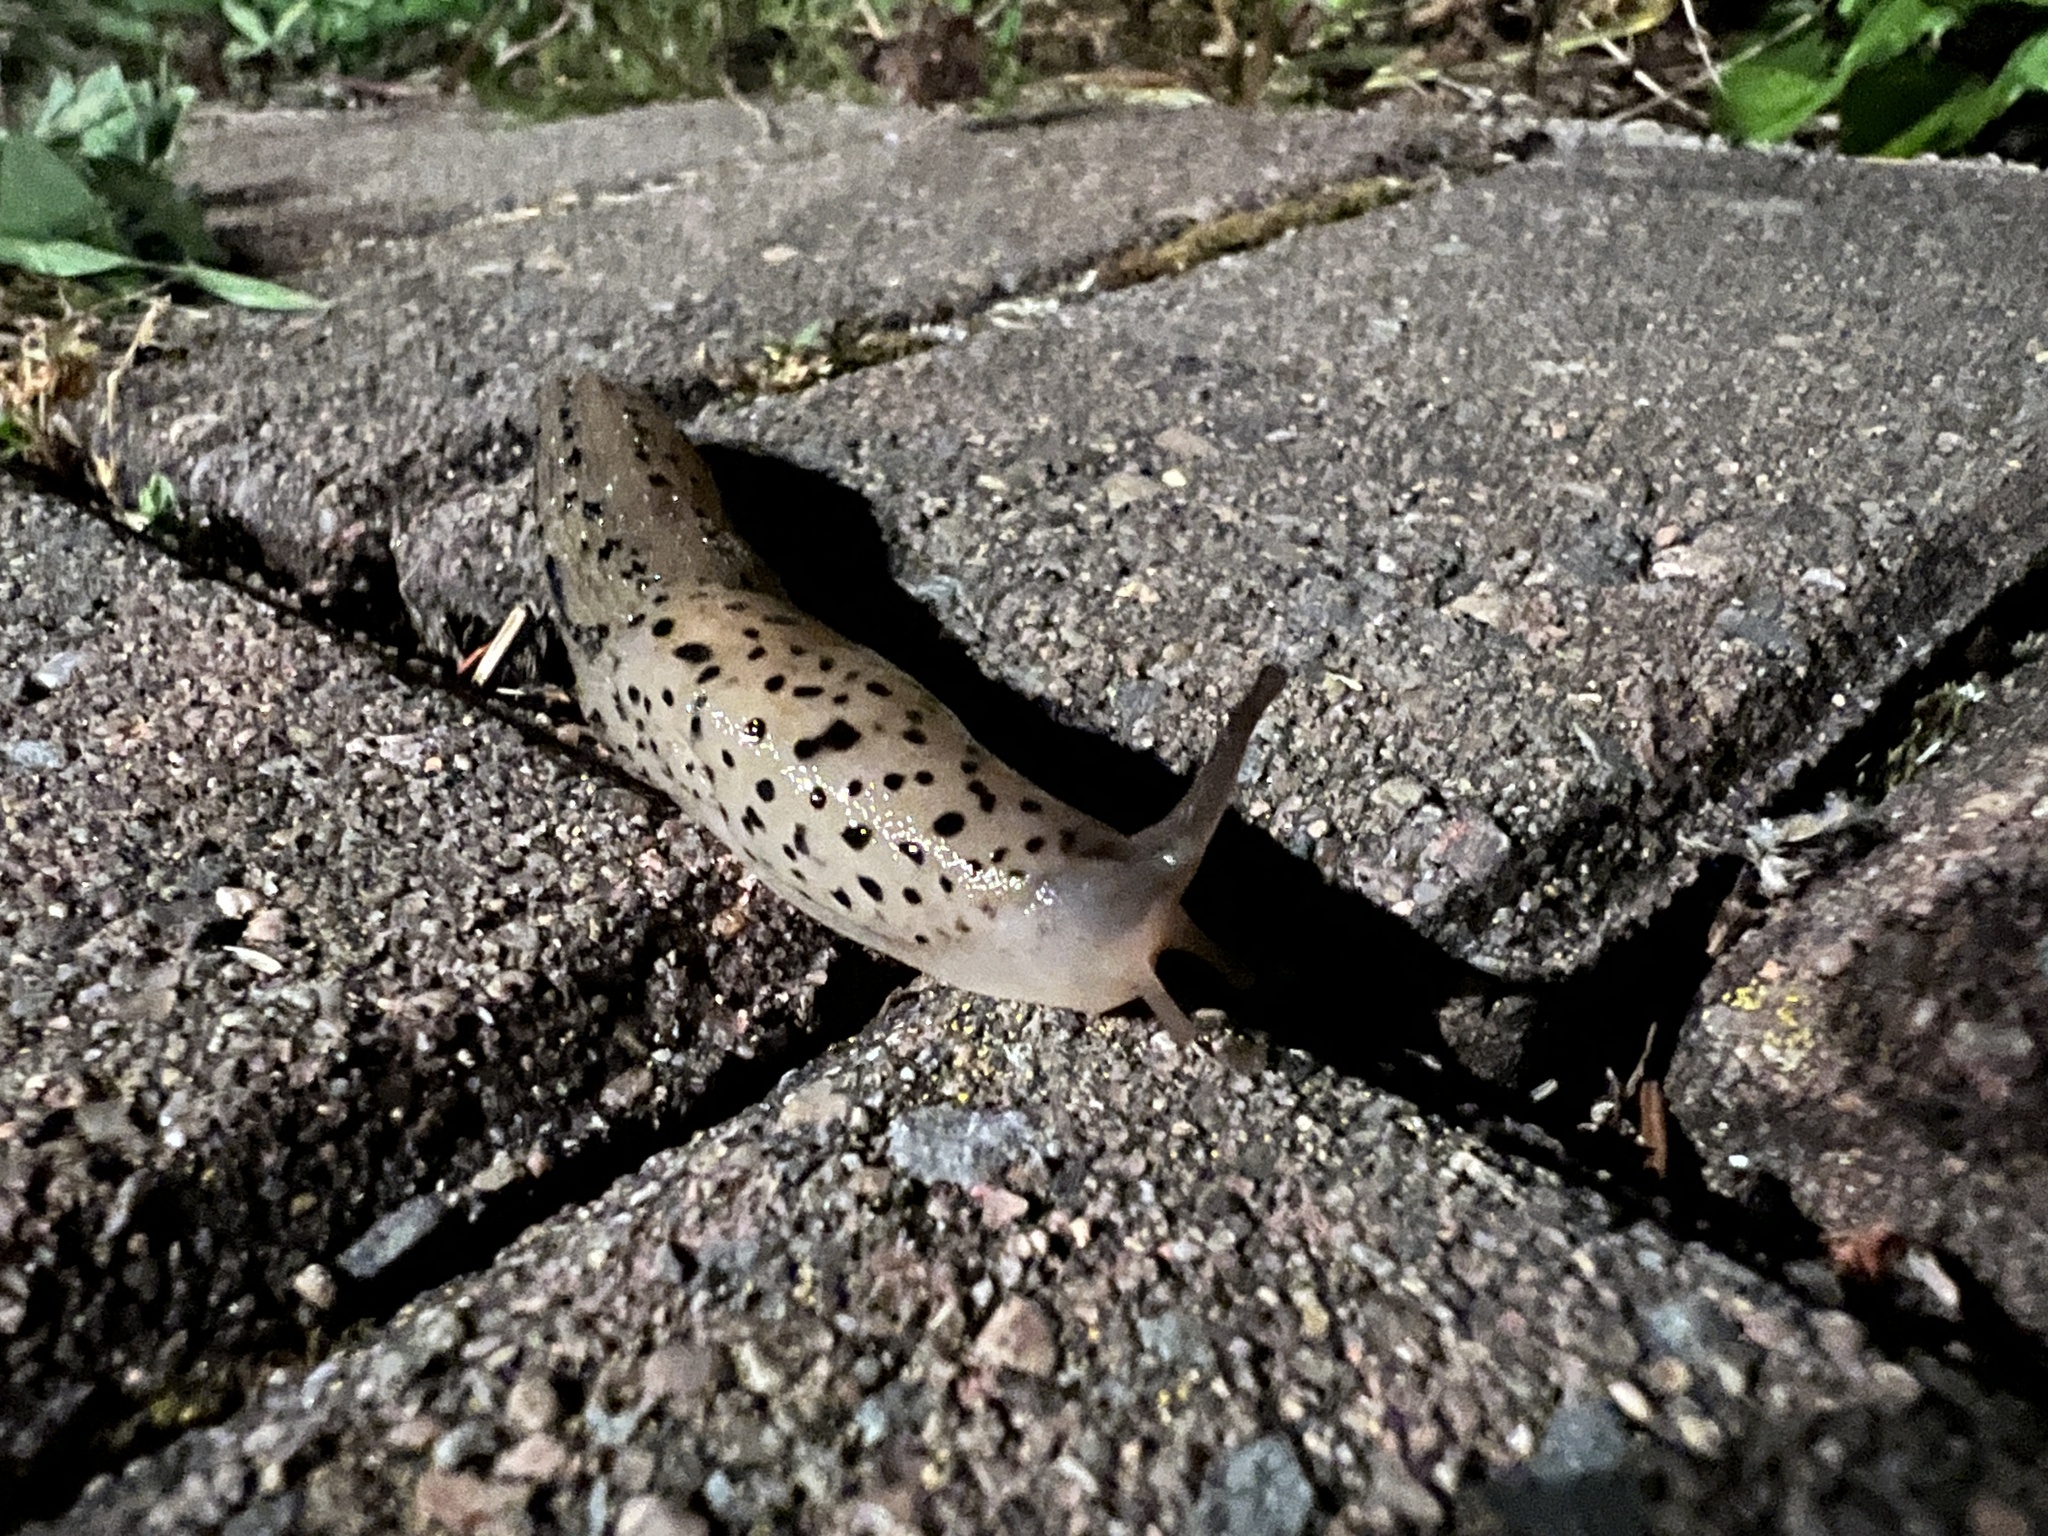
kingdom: Animalia
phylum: Mollusca
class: Gastropoda
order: Stylommatophora
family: Limacidae
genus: Limax
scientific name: Limax maximus
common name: Great grey slug
